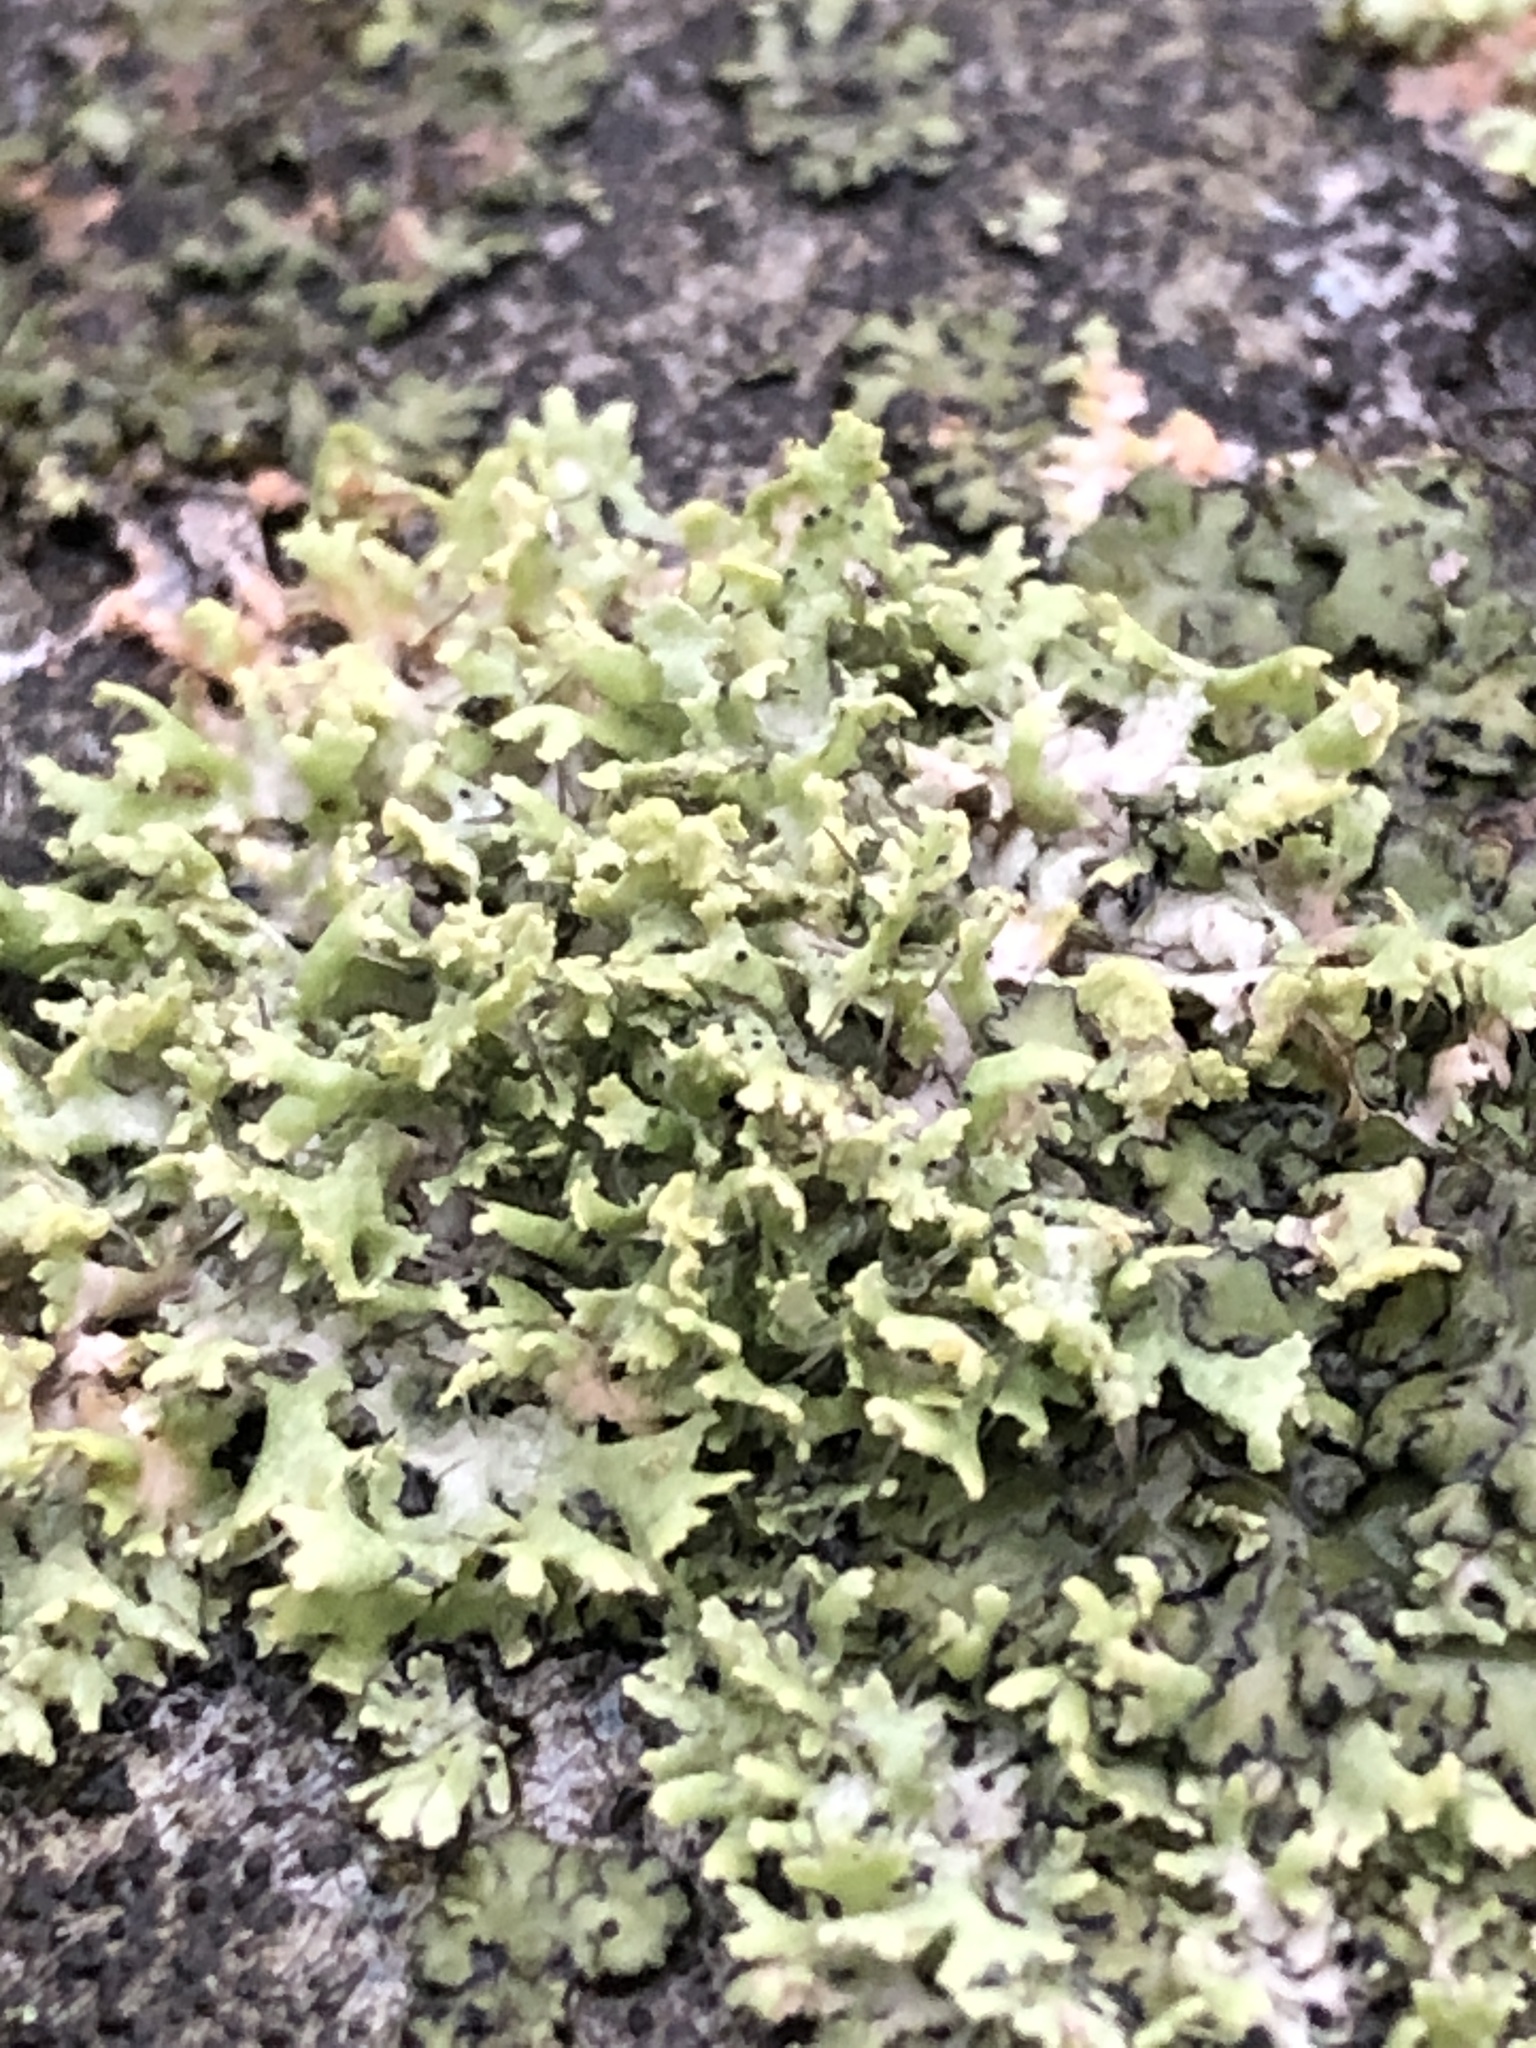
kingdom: Fungi
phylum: Ascomycota
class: Lecanoromycetes
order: Caliciales
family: Physciaceae
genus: Physcia
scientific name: Physcia tenella
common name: Fringed rosette lichen
